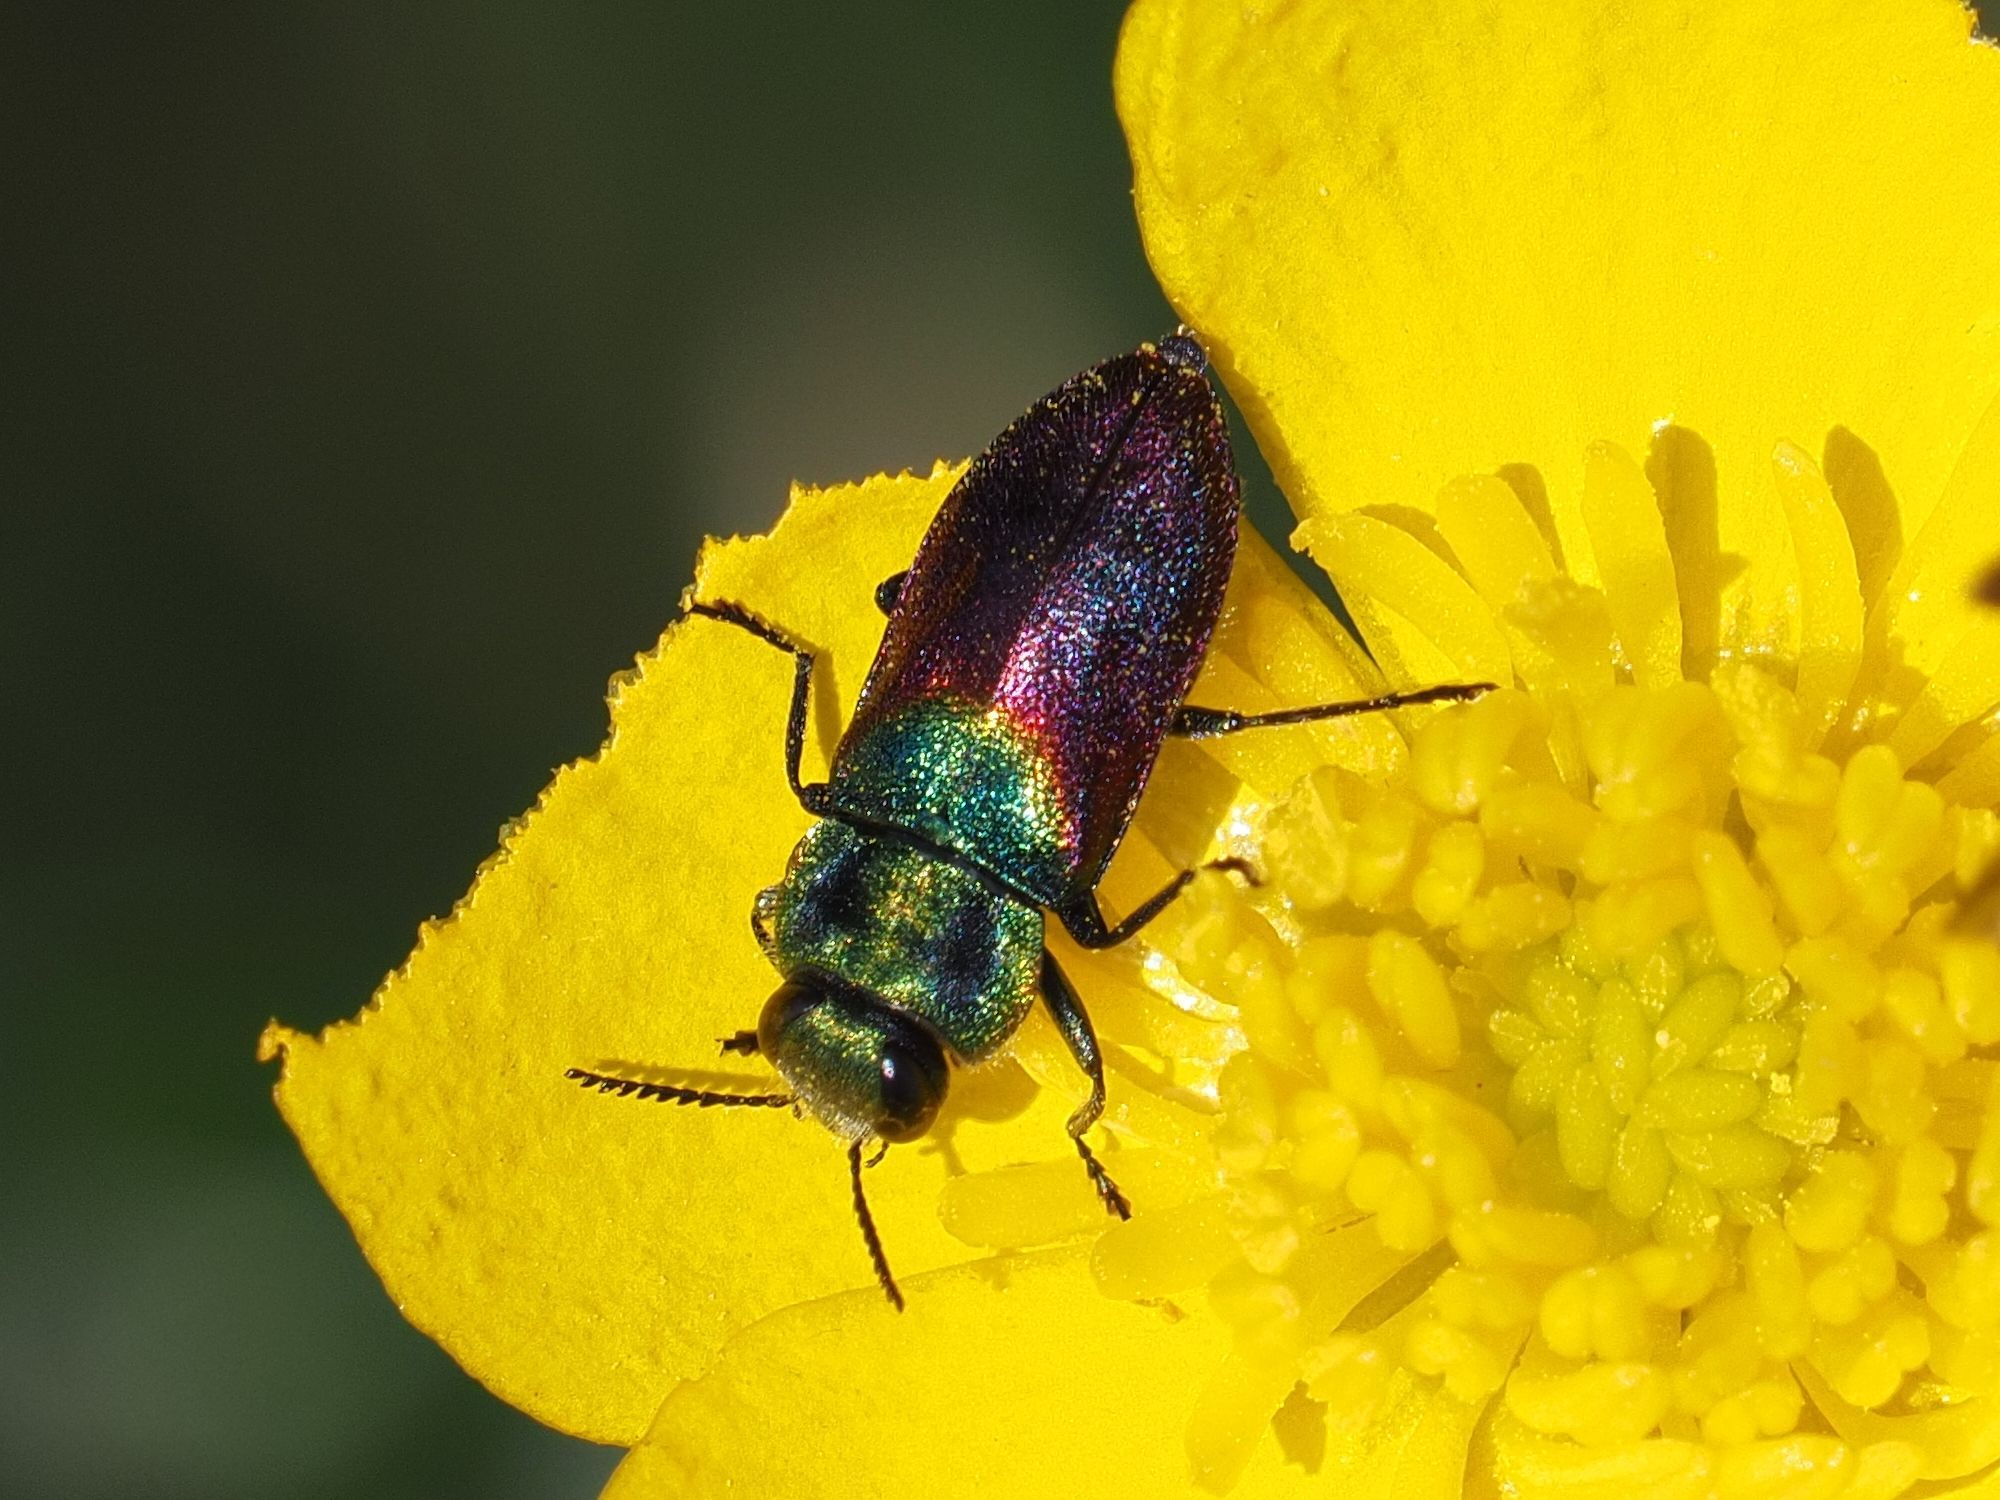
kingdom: Animalia
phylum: Arthropoda
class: Insecta
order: Coleoptera
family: Buprestidae
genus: Anthaxia
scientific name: Anthaxia salicis
